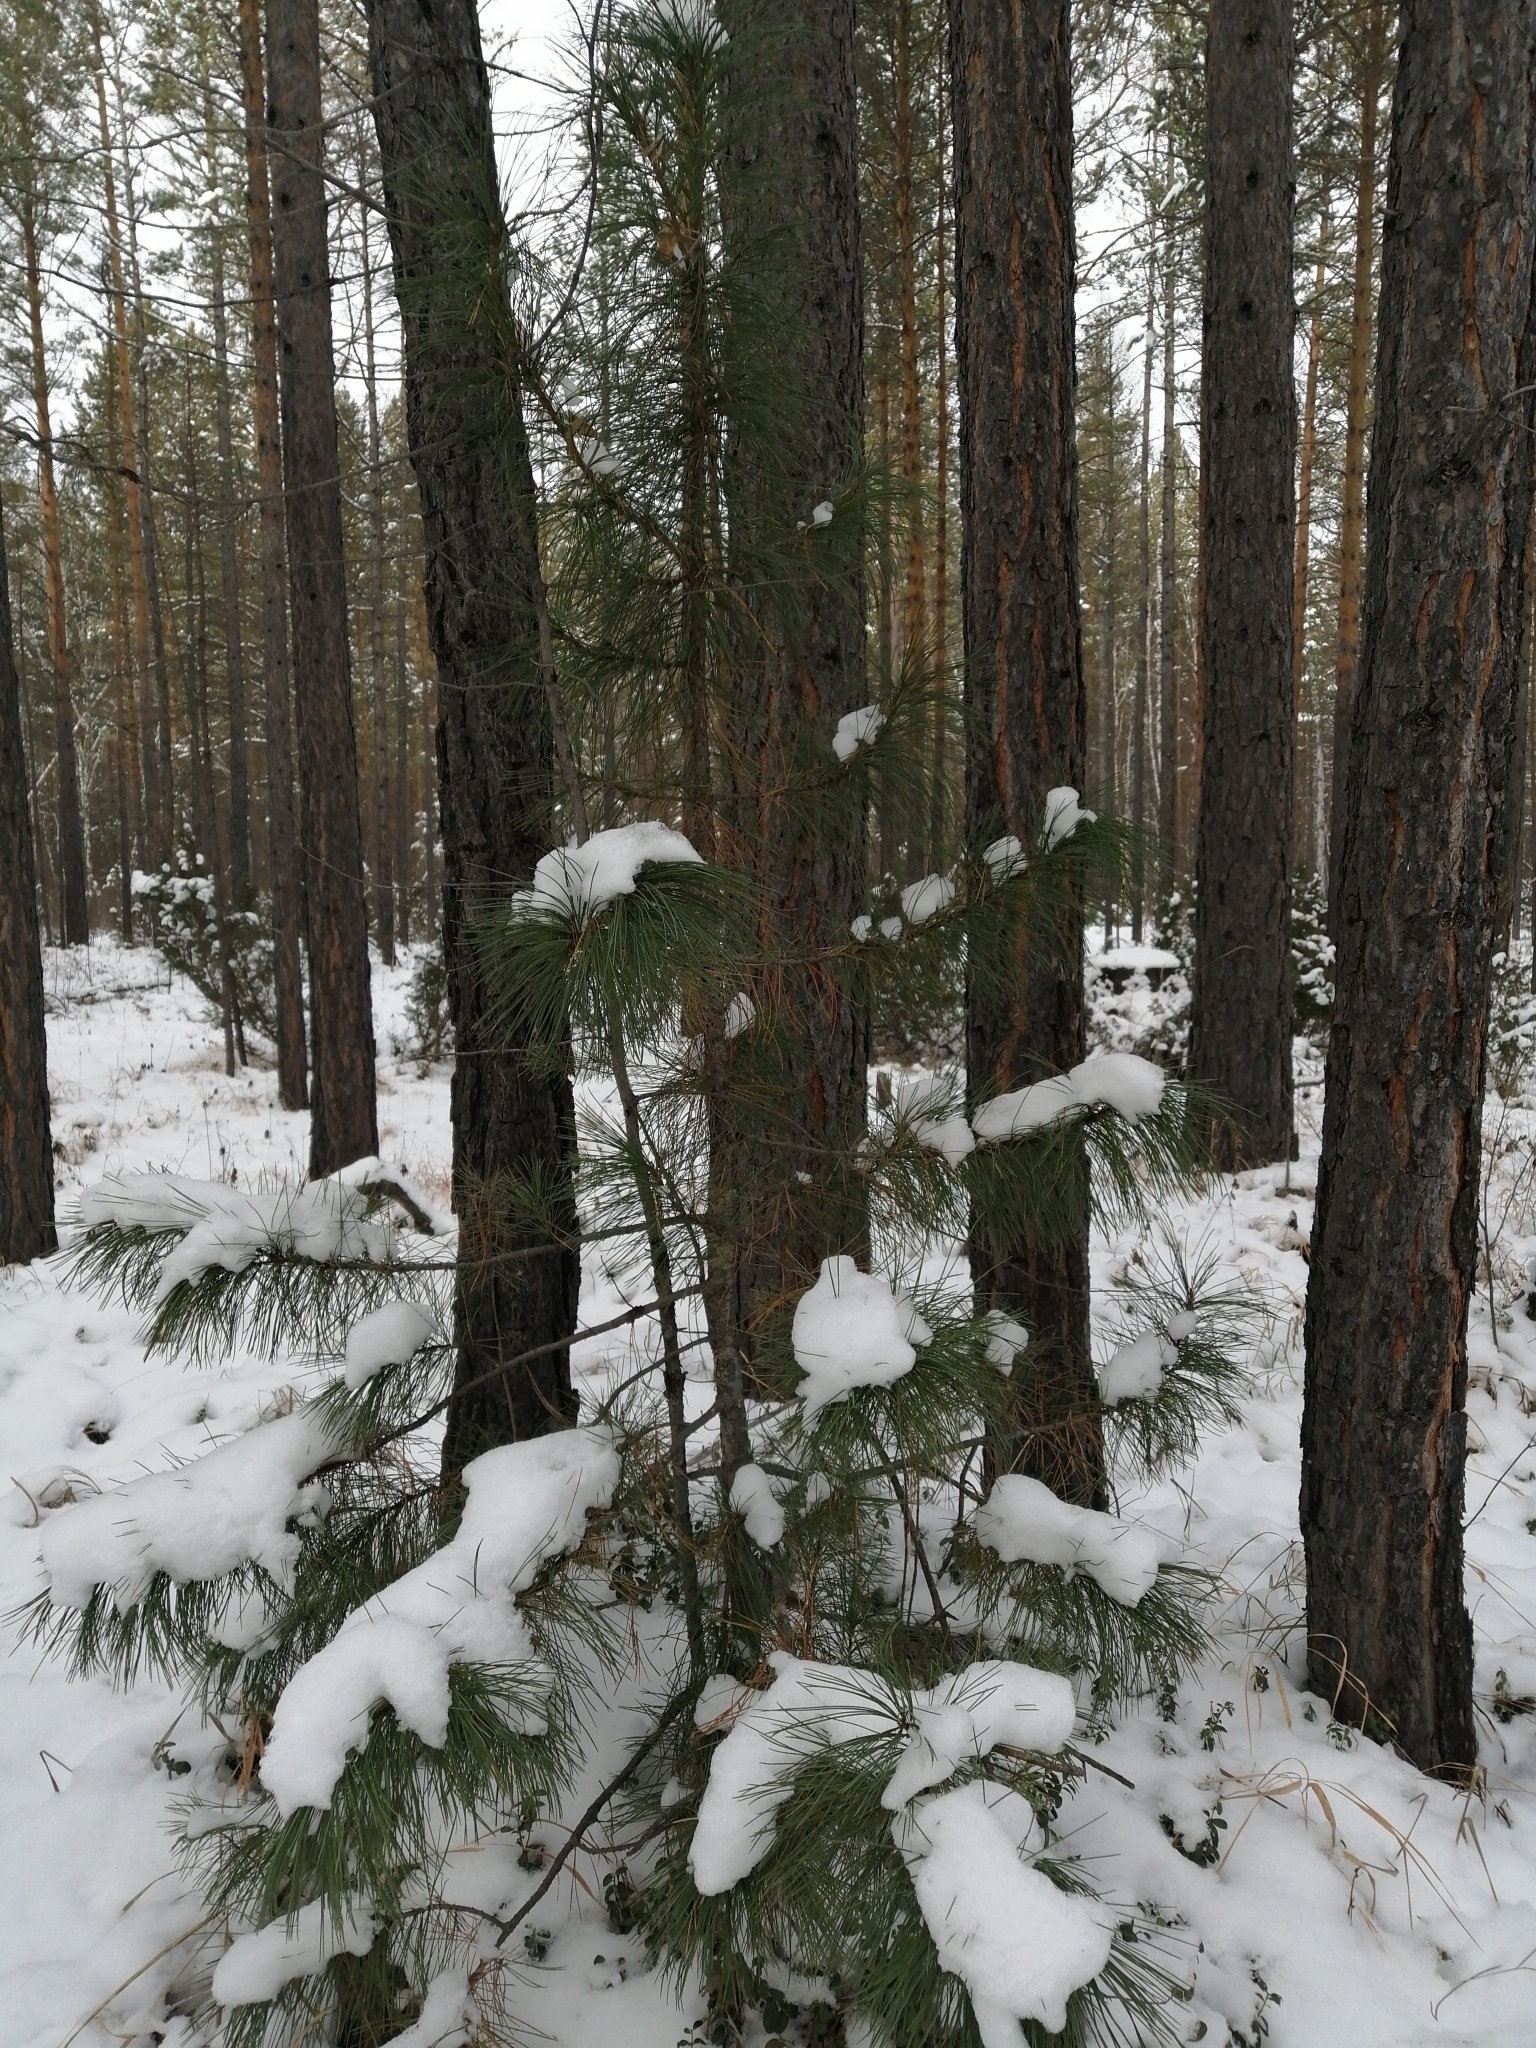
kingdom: Plantae
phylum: Tracheophyta
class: Pinopsida
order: Pinales
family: Pinaceae
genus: Pinus
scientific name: Pinus sibirica
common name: Siberian pine
